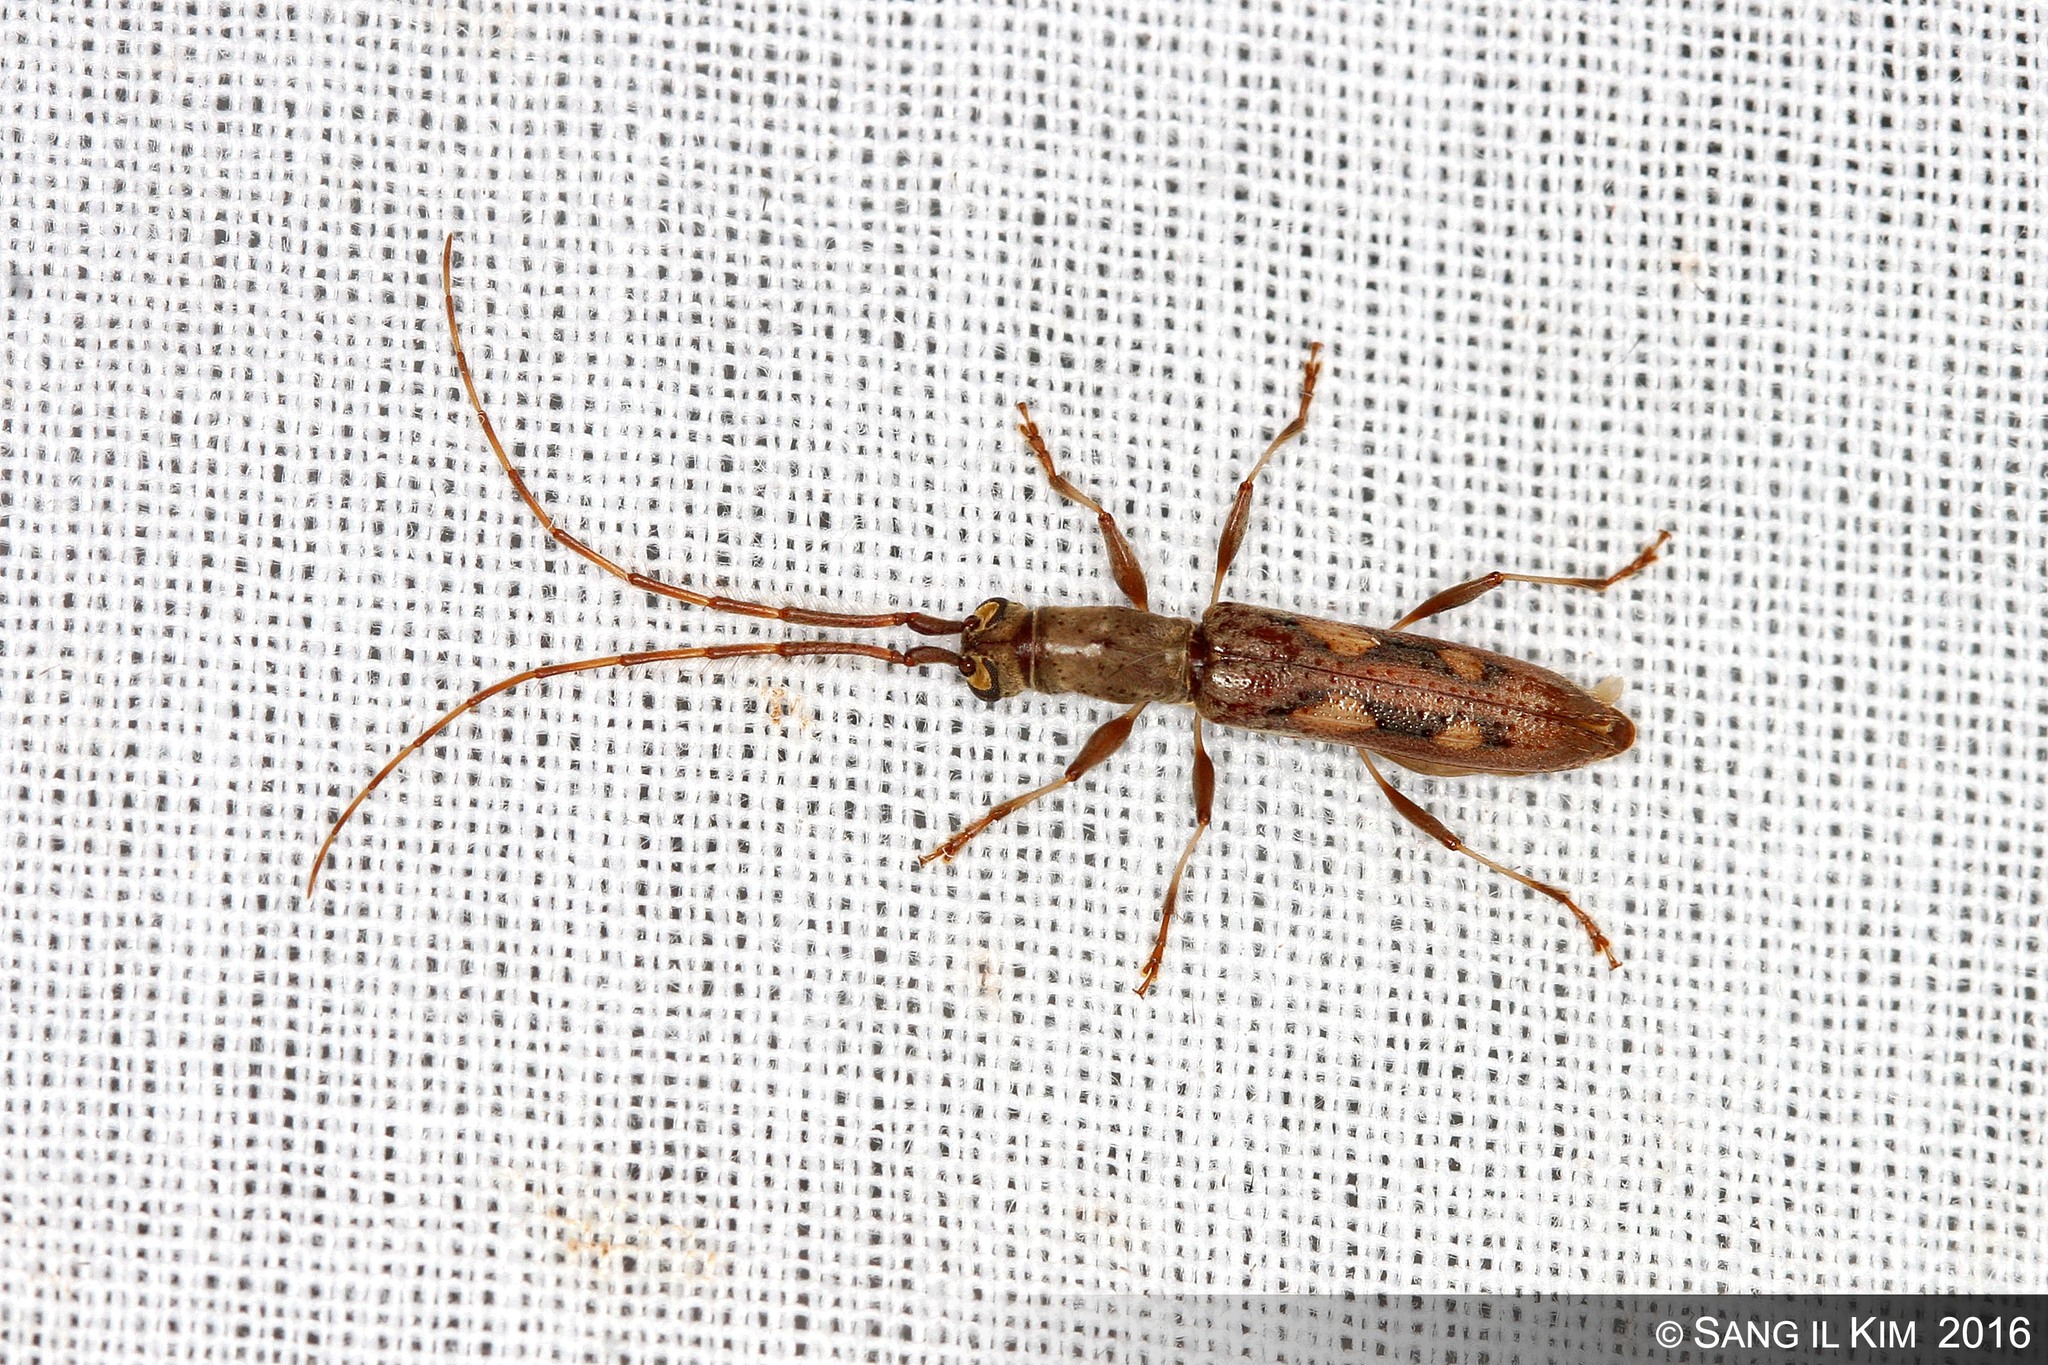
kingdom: Animalia
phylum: Arthropoda
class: Insecta
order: Coleoptera
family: Cerambycidae
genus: Neocompsa
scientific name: Neocompsa cylindricollis
